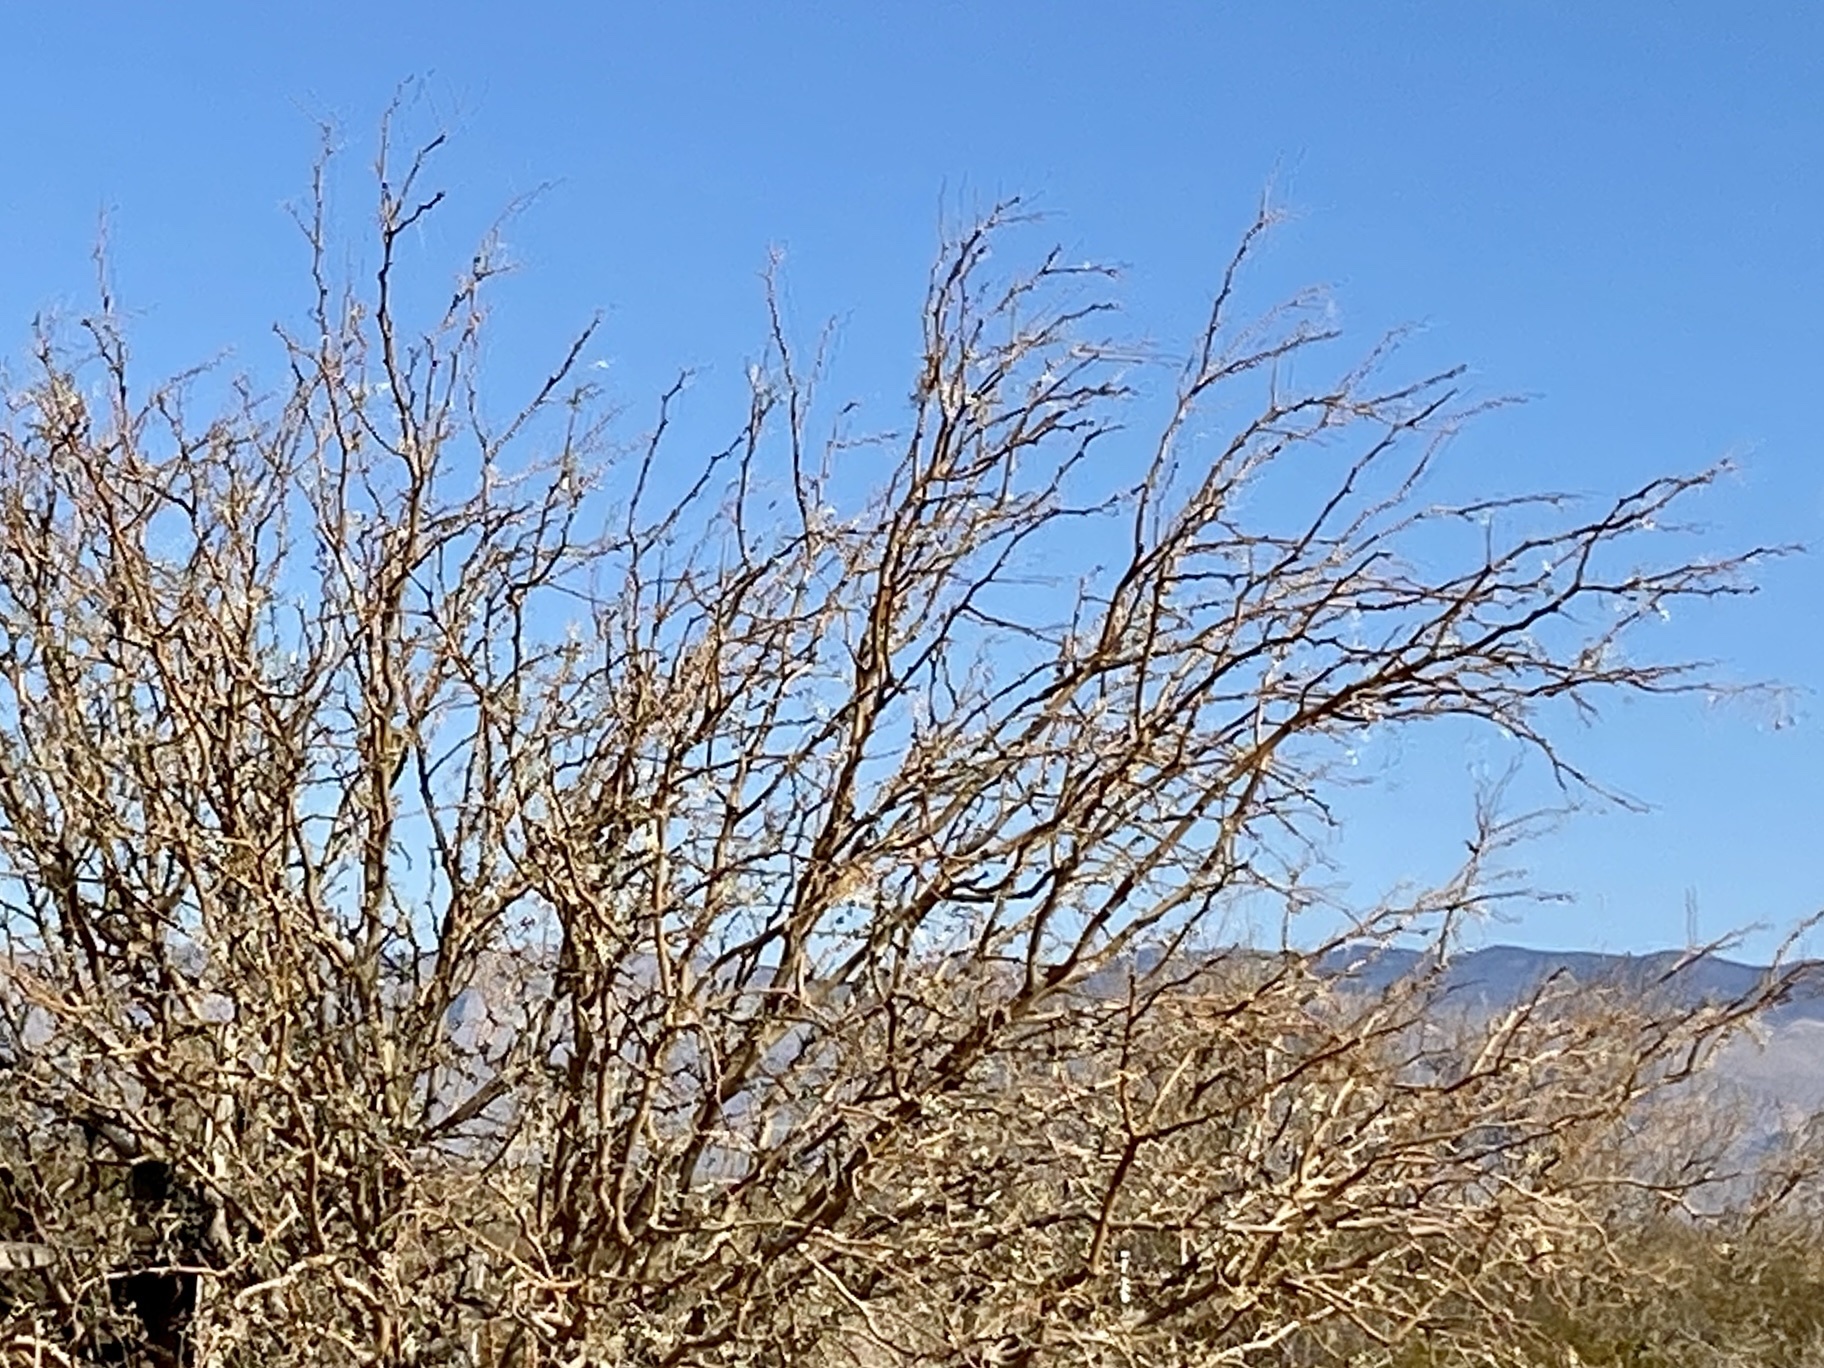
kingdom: Plantae
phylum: Tracheophyta
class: Magnoliopsida
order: Fabales
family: Fabaceae
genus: Prosopis
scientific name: Prosopis glandulosa
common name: Honey mesquite
